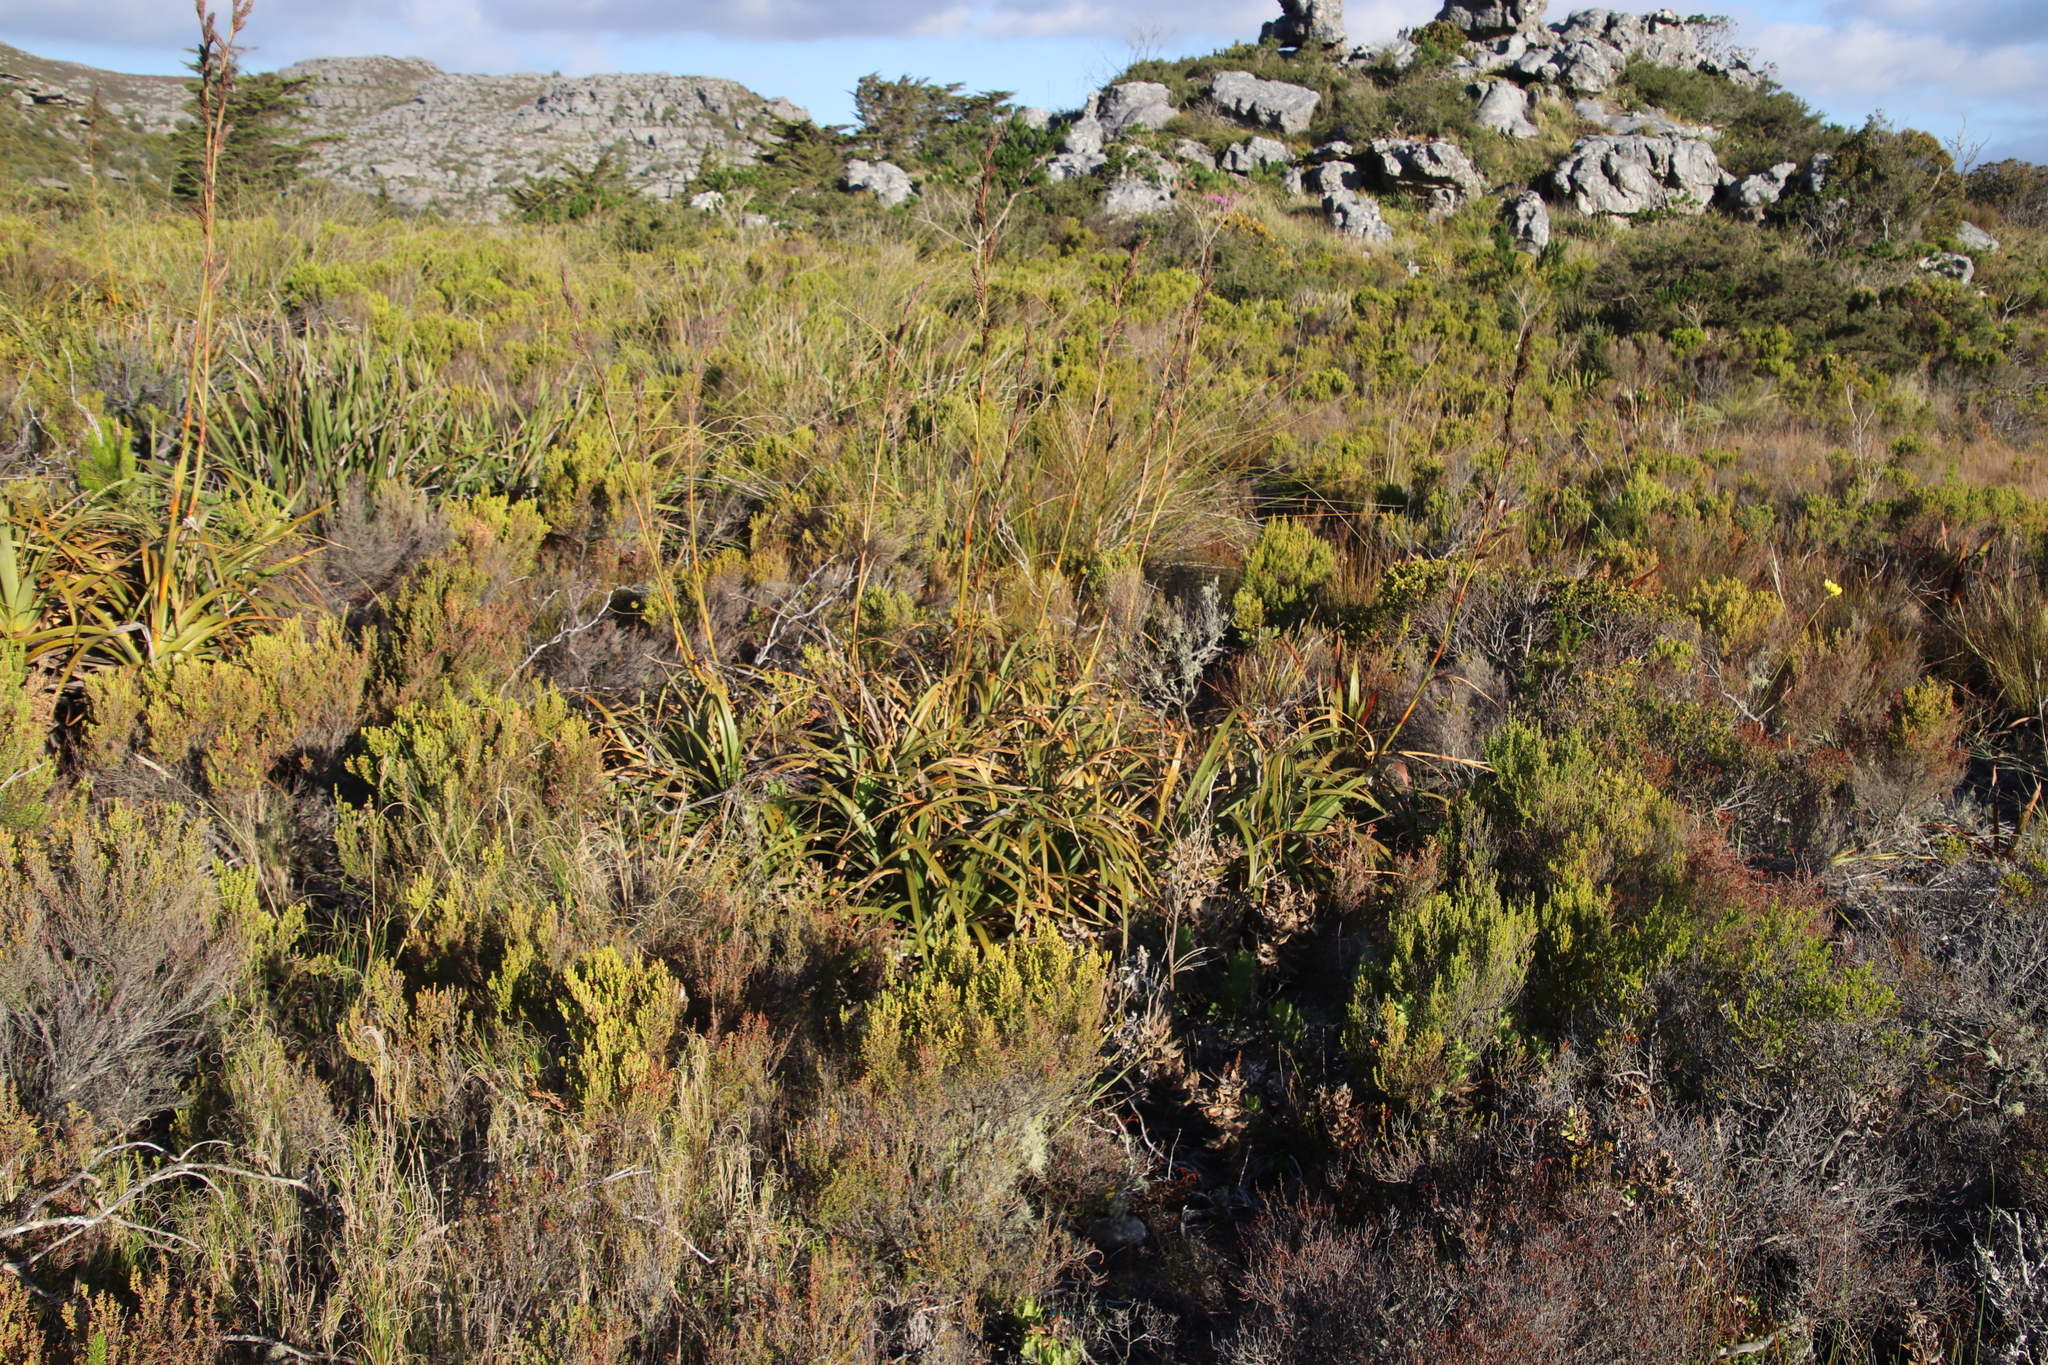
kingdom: Plantae
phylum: Tracheophyta
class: Liliopsida
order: Poales
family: Cyperaceae
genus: Tetraria
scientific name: Tetraria thermalis
